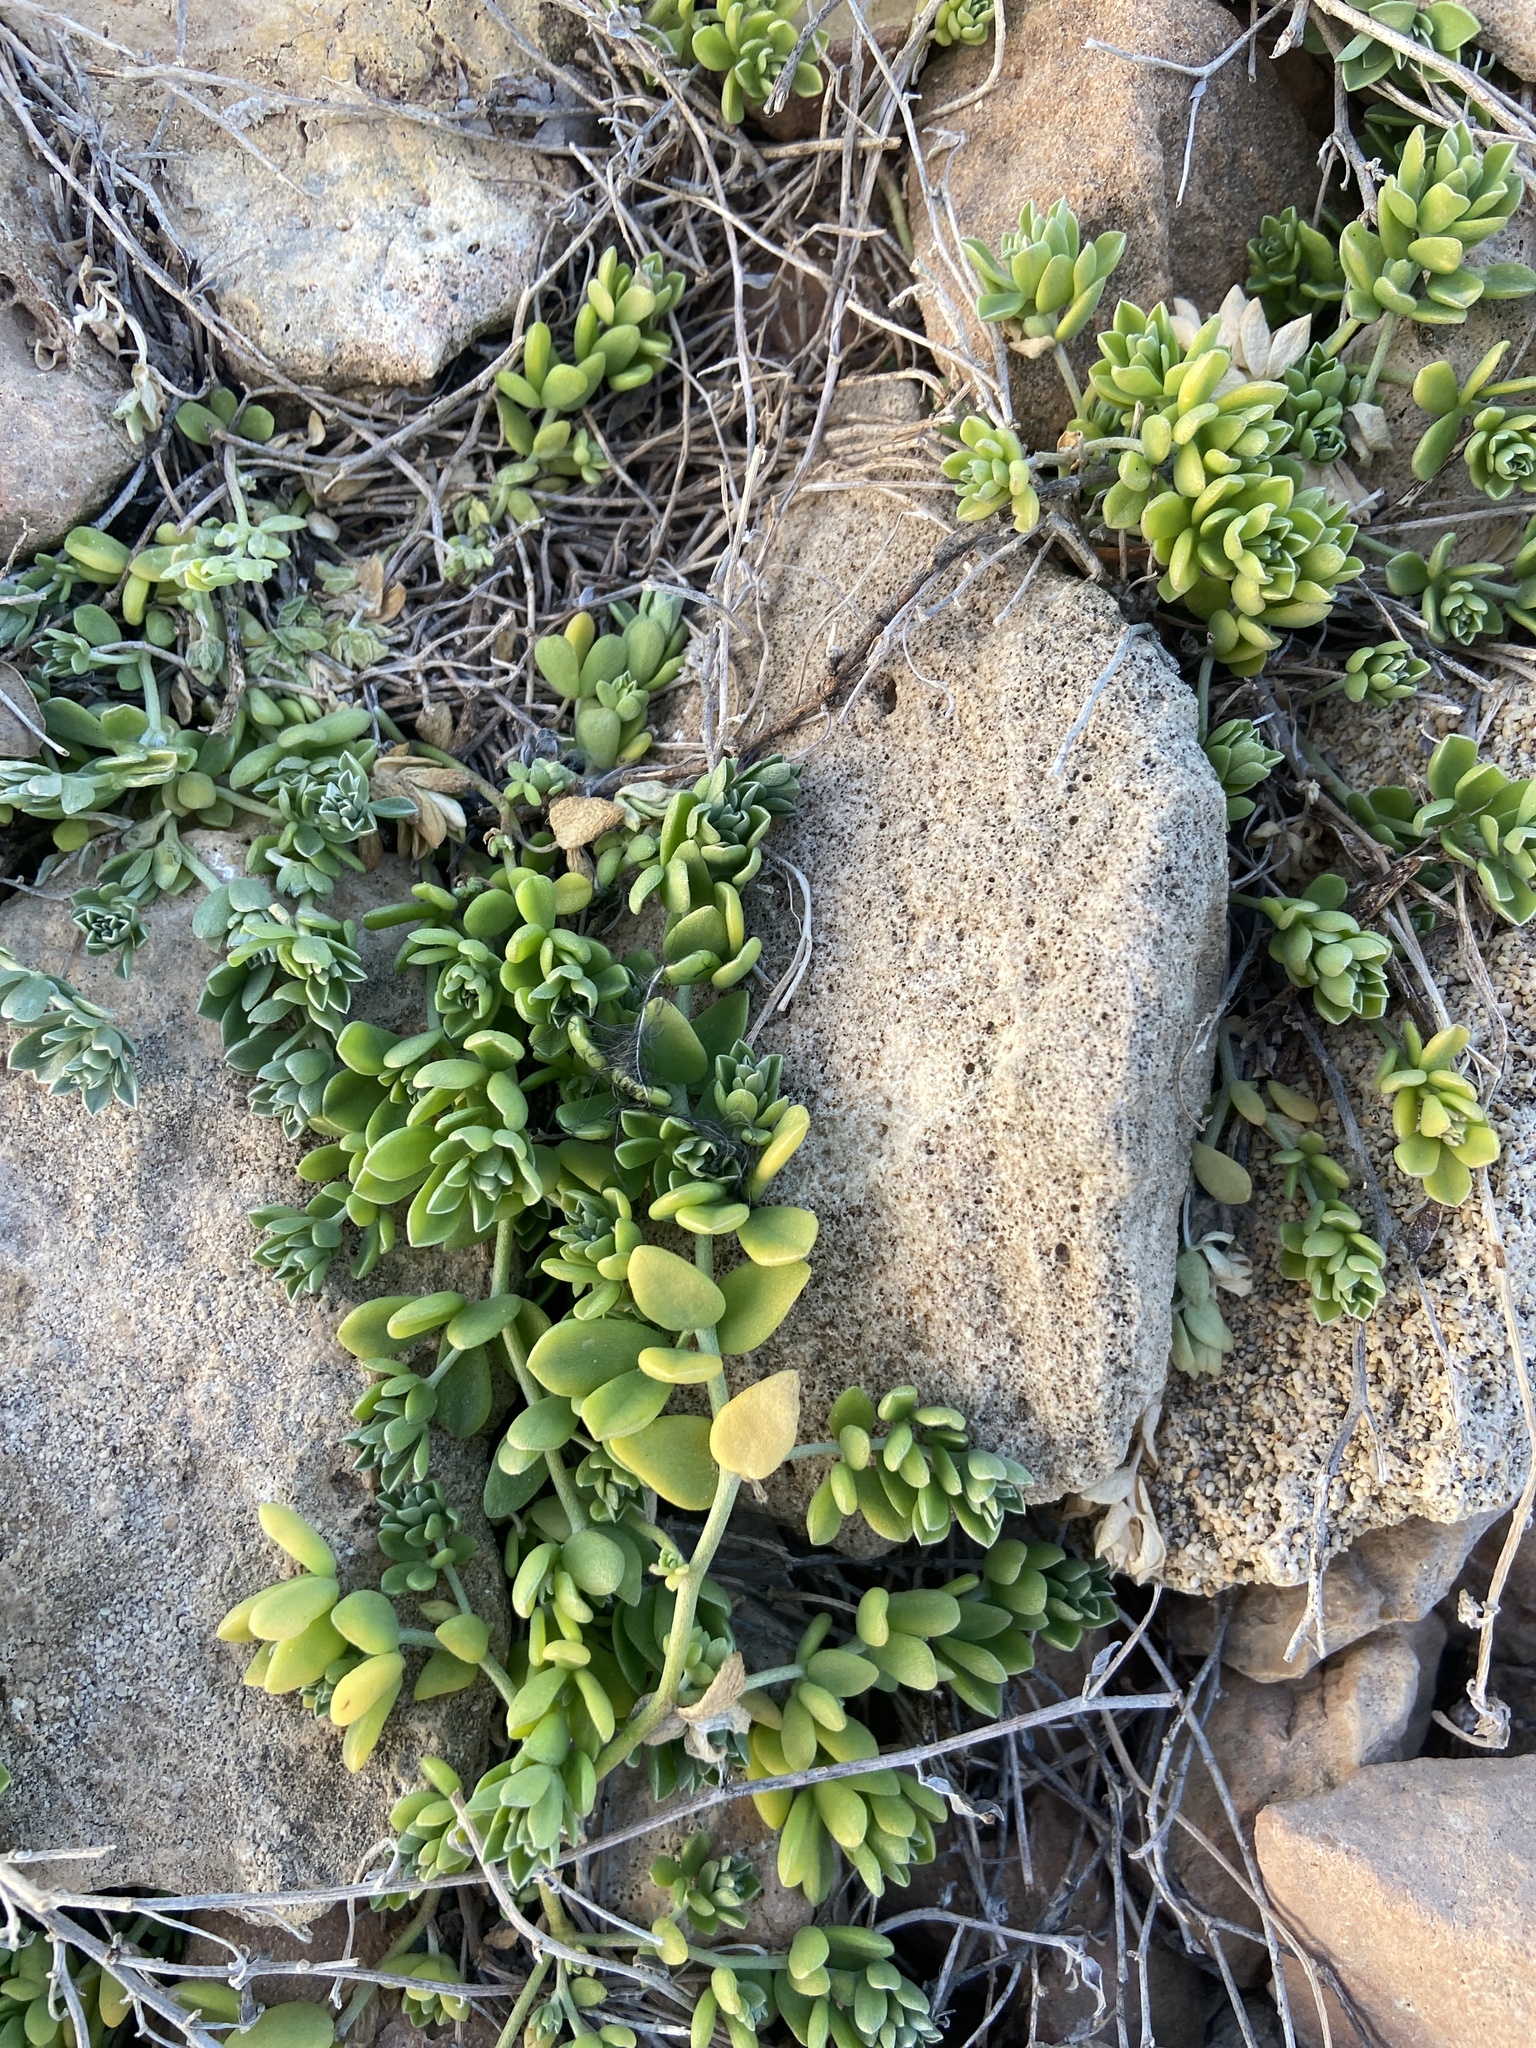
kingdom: Plantae
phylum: Tracheophyta
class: Magnoliopsida
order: Fabales
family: Fabaceae
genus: Lotus
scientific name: Lotus cytisoides
